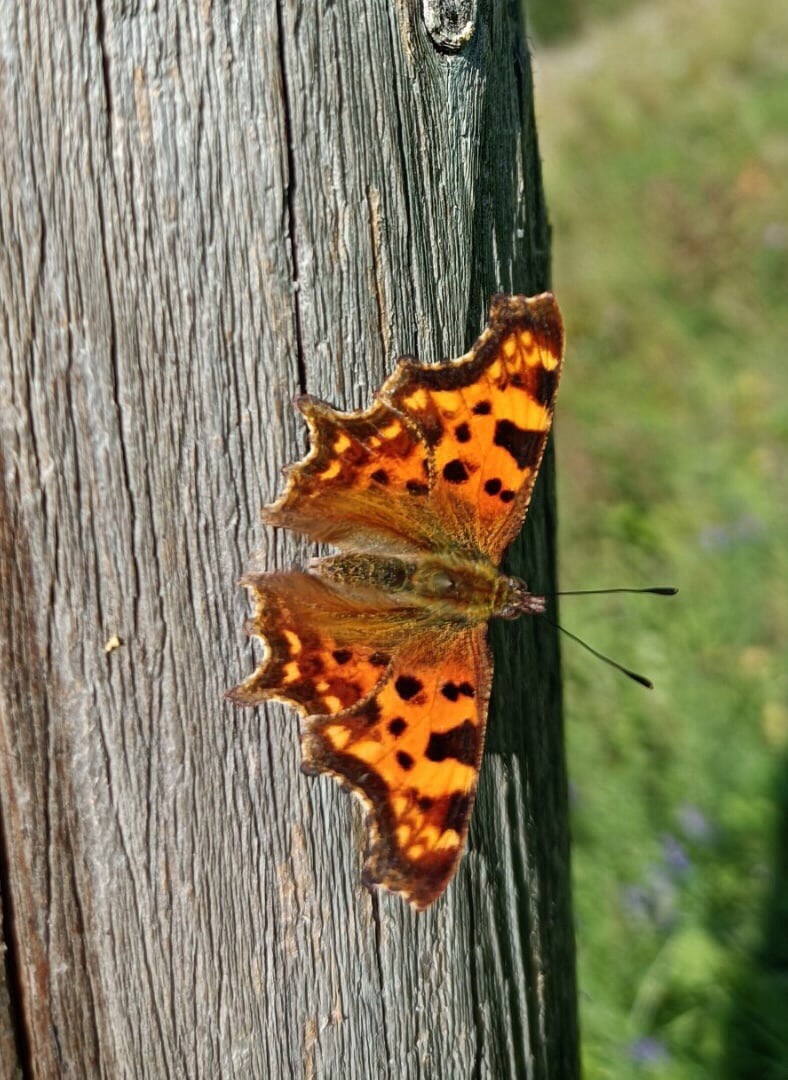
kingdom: Animalia
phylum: Arthropoda
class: Insecta
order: Lepidoptera
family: Nymphalidae
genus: Polygonia
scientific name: Polygonia c-album
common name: Comma
